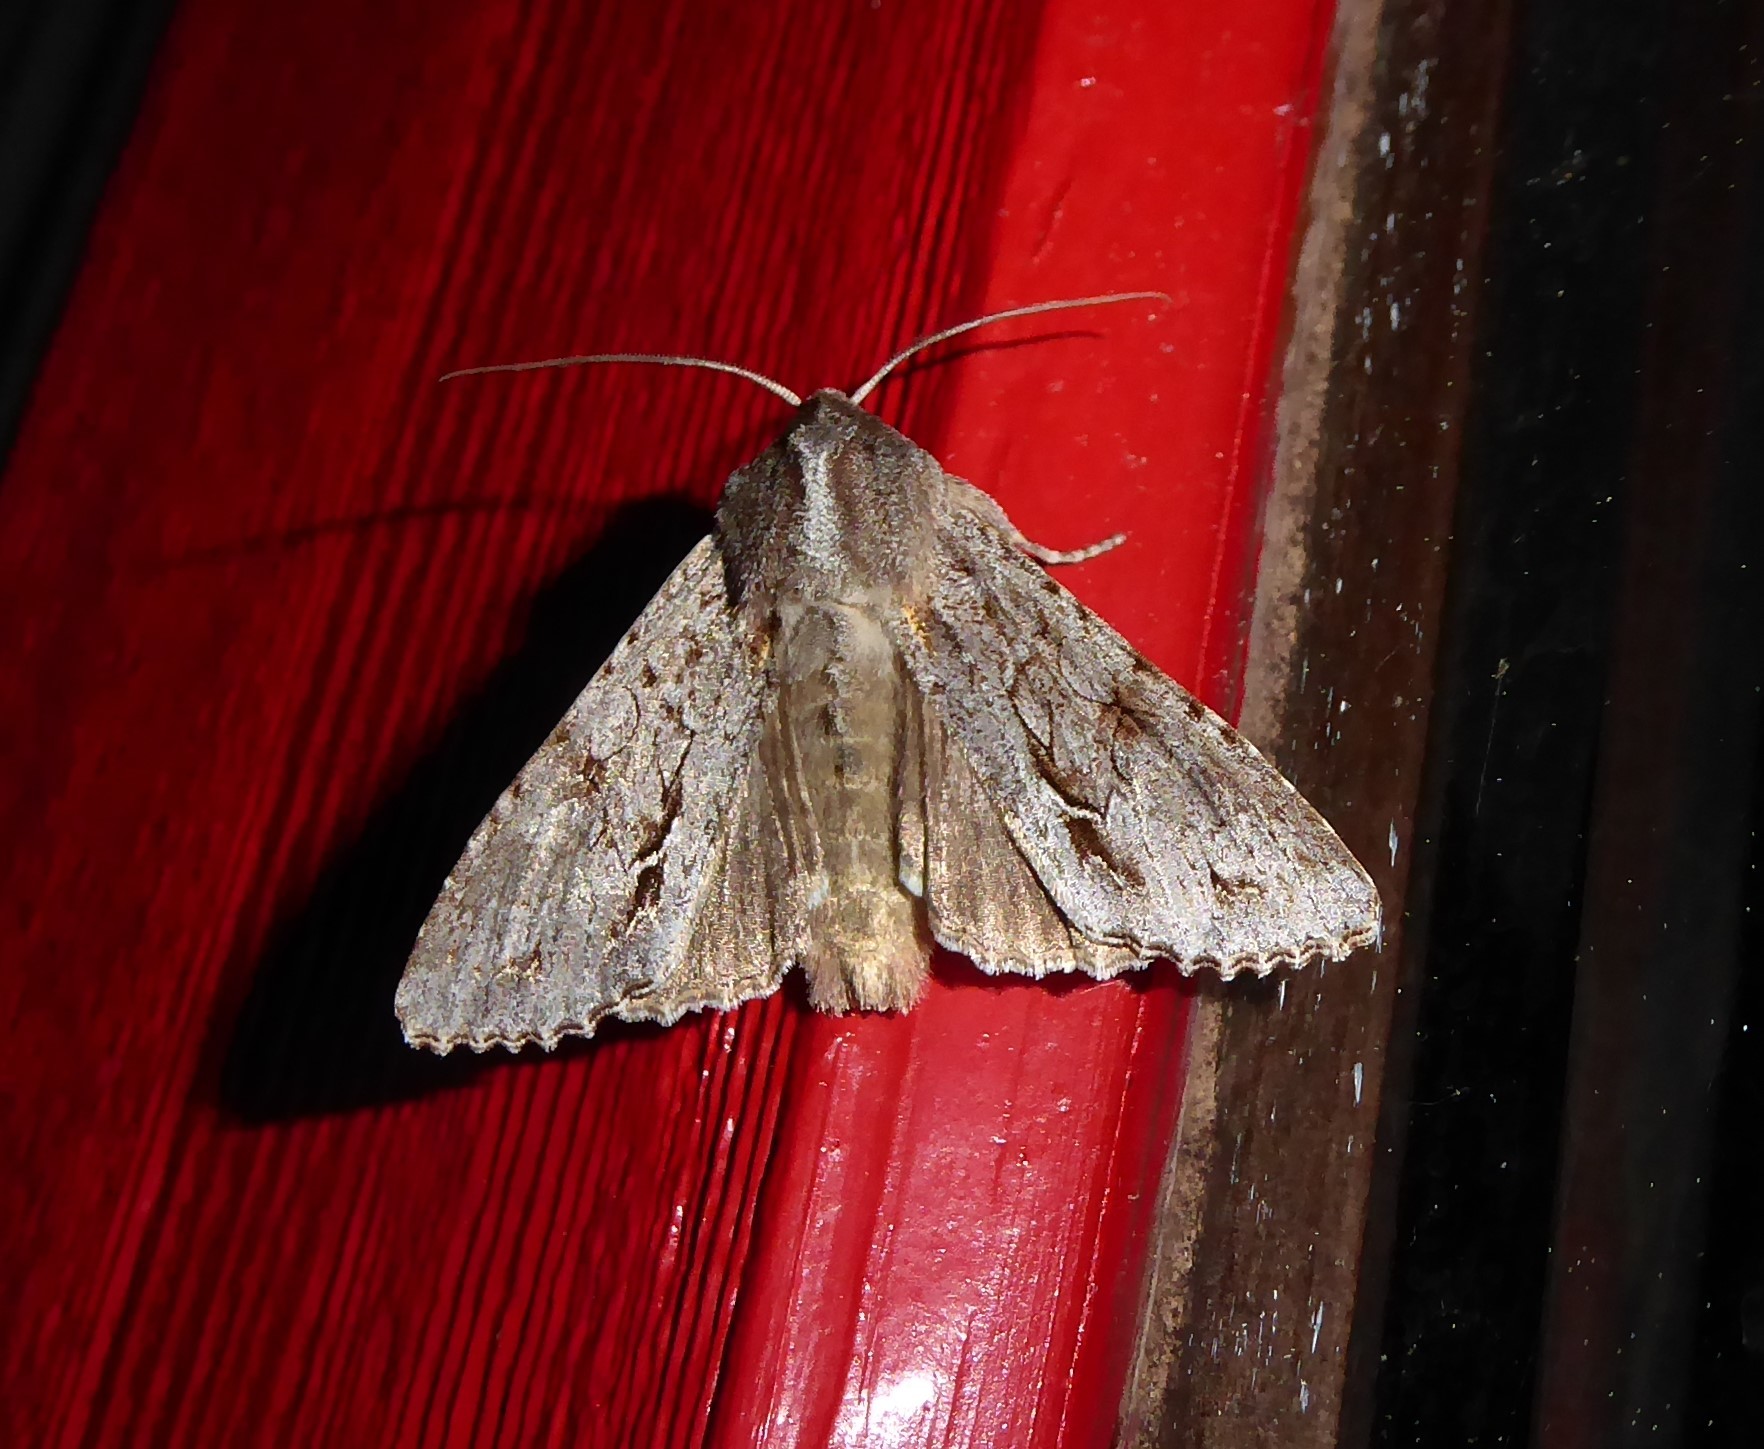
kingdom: Animalia
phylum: Arthropoda
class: Insecta
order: Lepidoptera
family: Noctuidae
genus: Ichneutica
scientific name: Ichneutica
